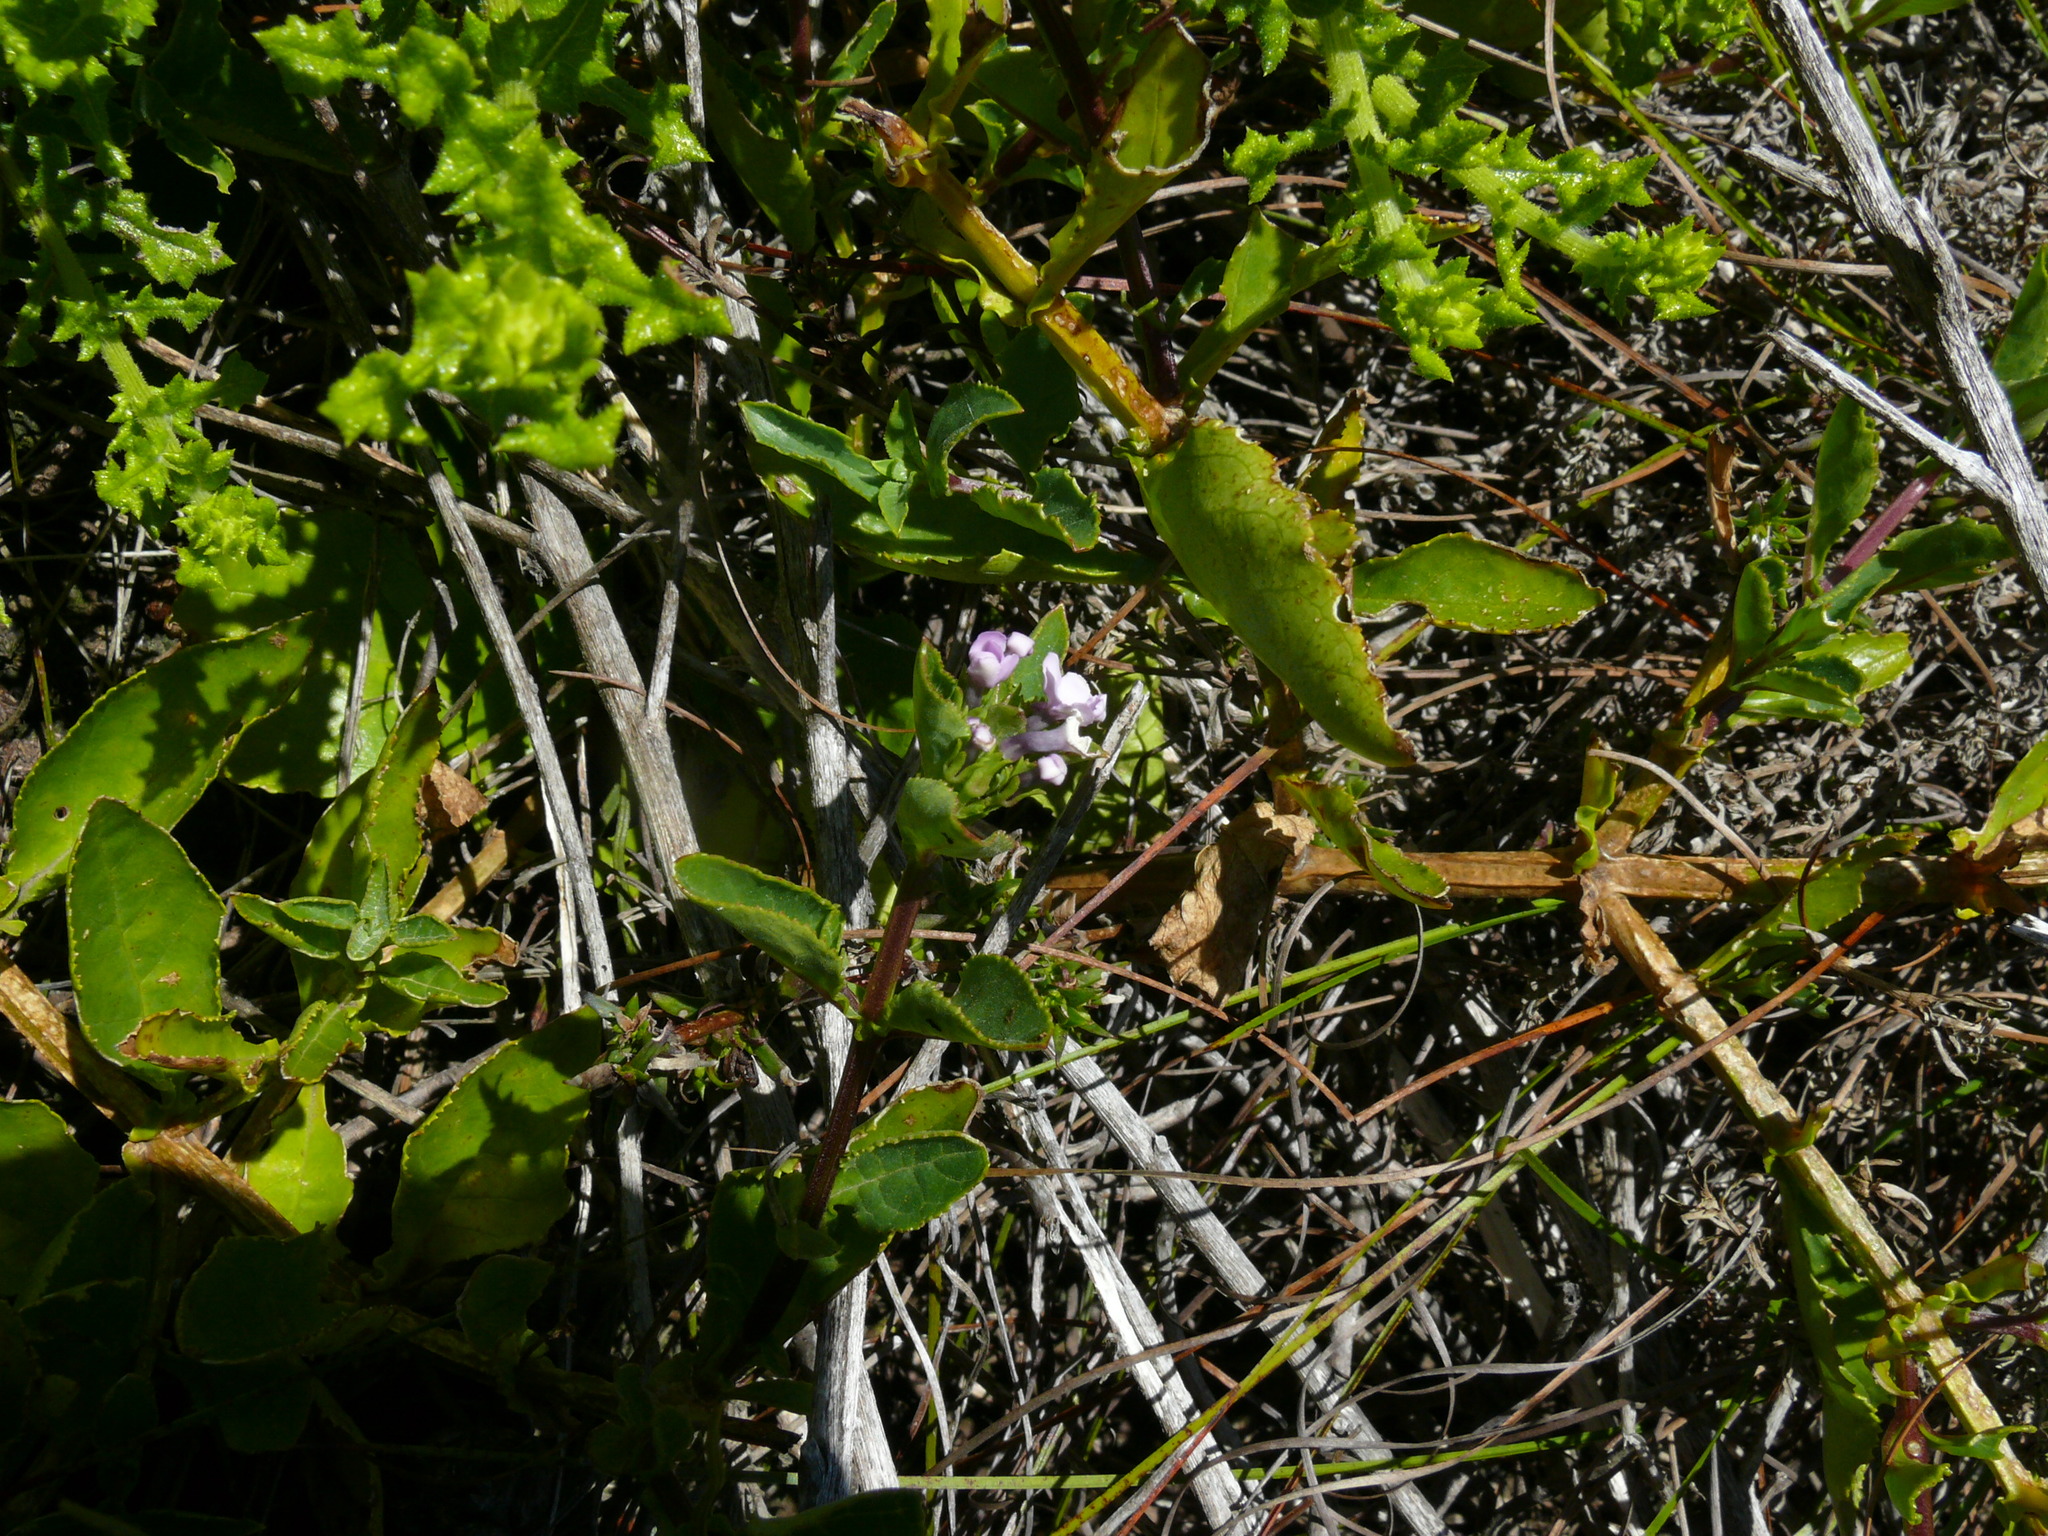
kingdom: Plantae
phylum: Tracheophyta
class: Magnoliopsida
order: Lamiales
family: Scrophulariaceae
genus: Teedia
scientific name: Teedia lucida
